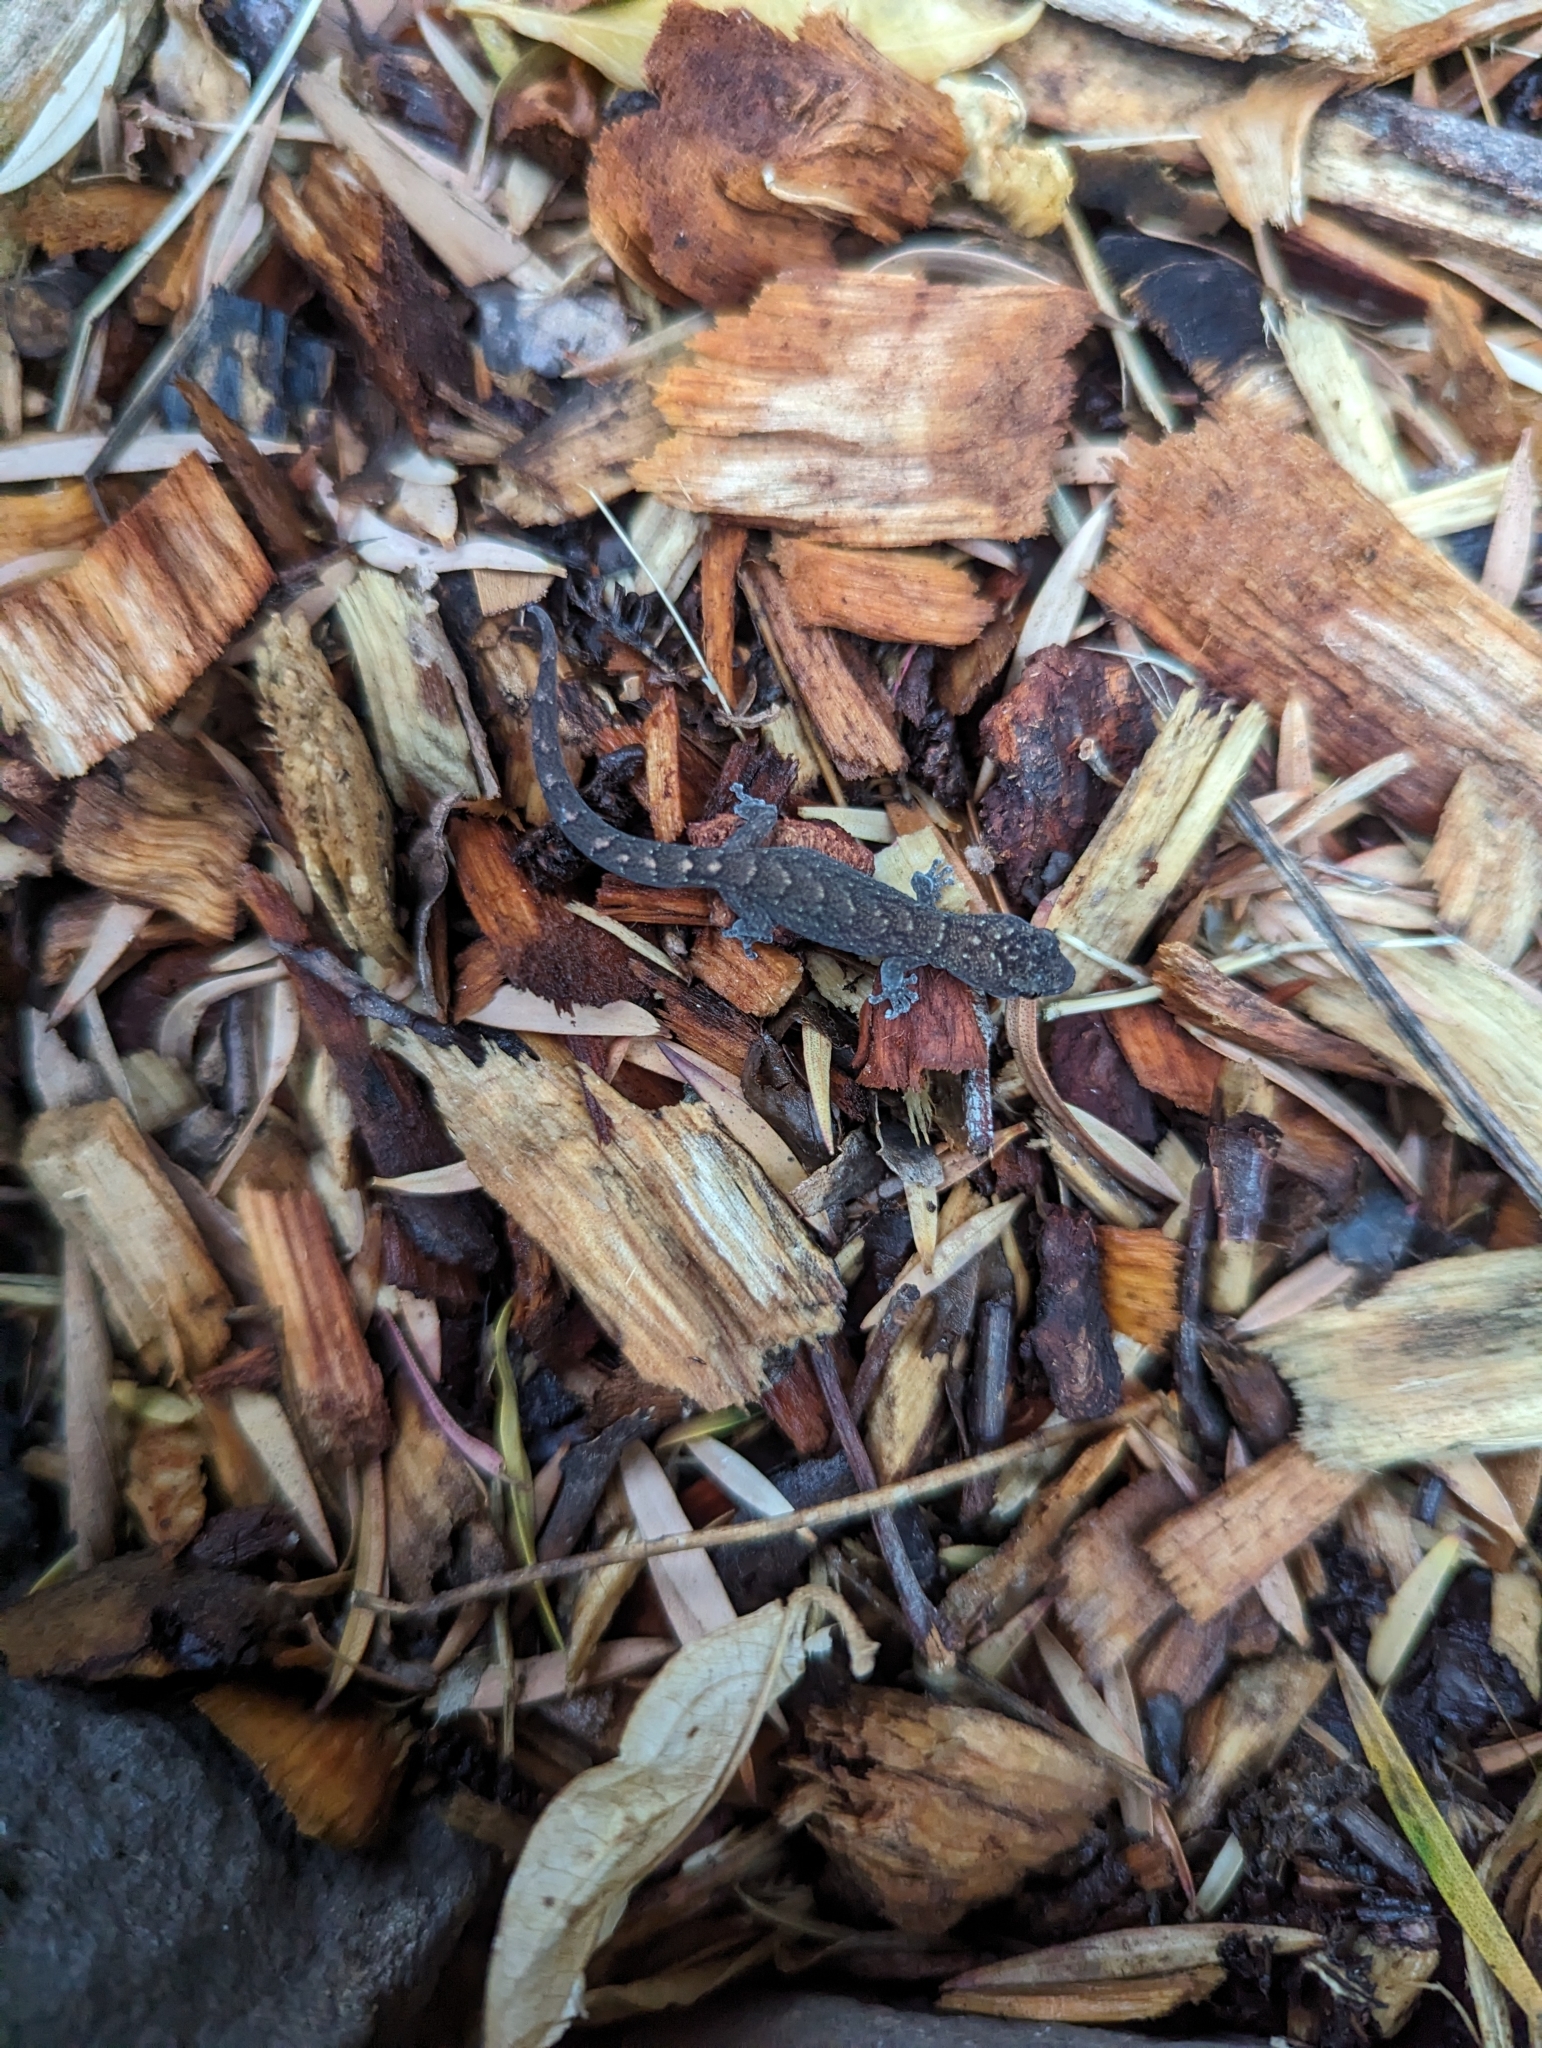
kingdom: Animalia
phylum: Chordata
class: Squamata
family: Gekkonidae
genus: Christinus
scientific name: Christinus marmoratus
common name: Marbled gecko
